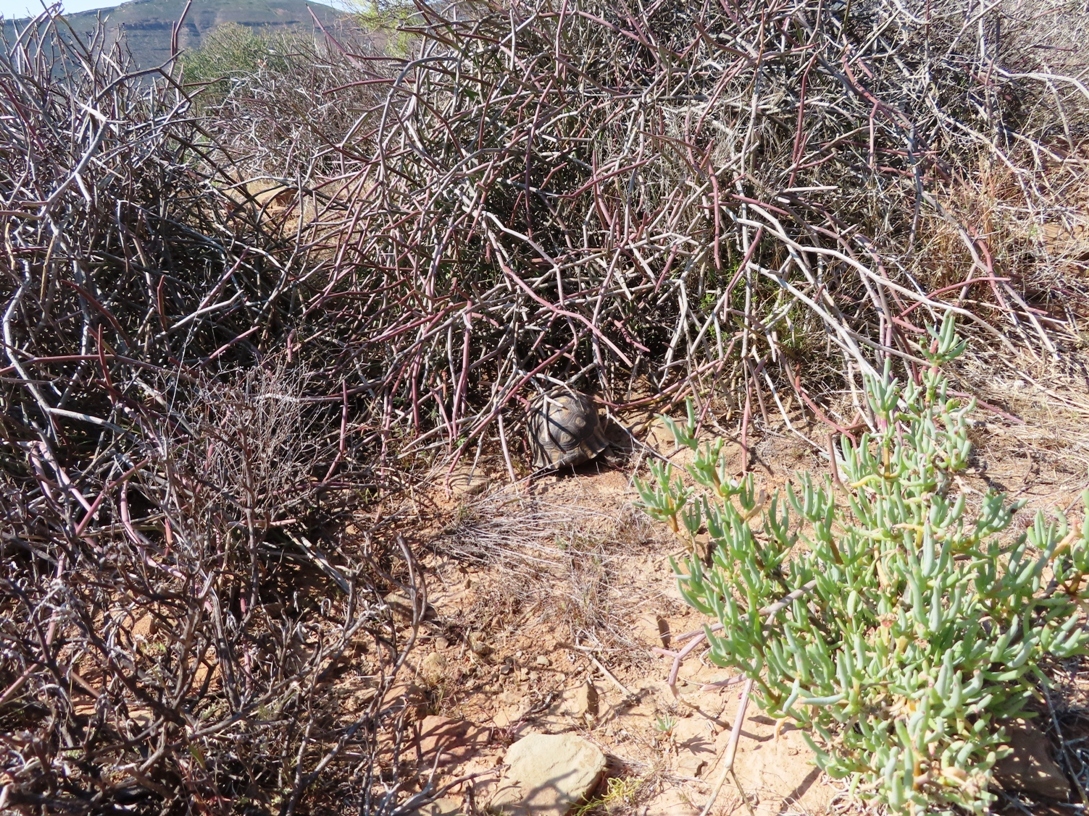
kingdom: Animalia
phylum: Chordata
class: Testudines
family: Testudinidae
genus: Chersina
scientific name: Chersina angulata
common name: South african bowsprit tortoise
